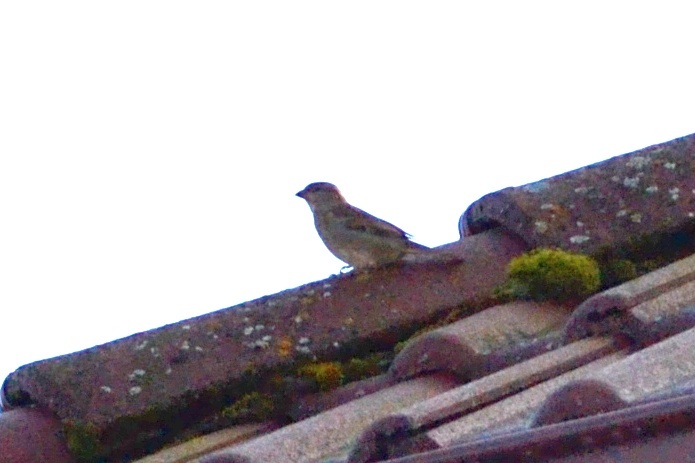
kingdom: Animalia
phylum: Chordata
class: Aves
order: Passeriformes
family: Passeridae
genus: Passer
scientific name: Passer montanus
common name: Eurasian tree sparrow
